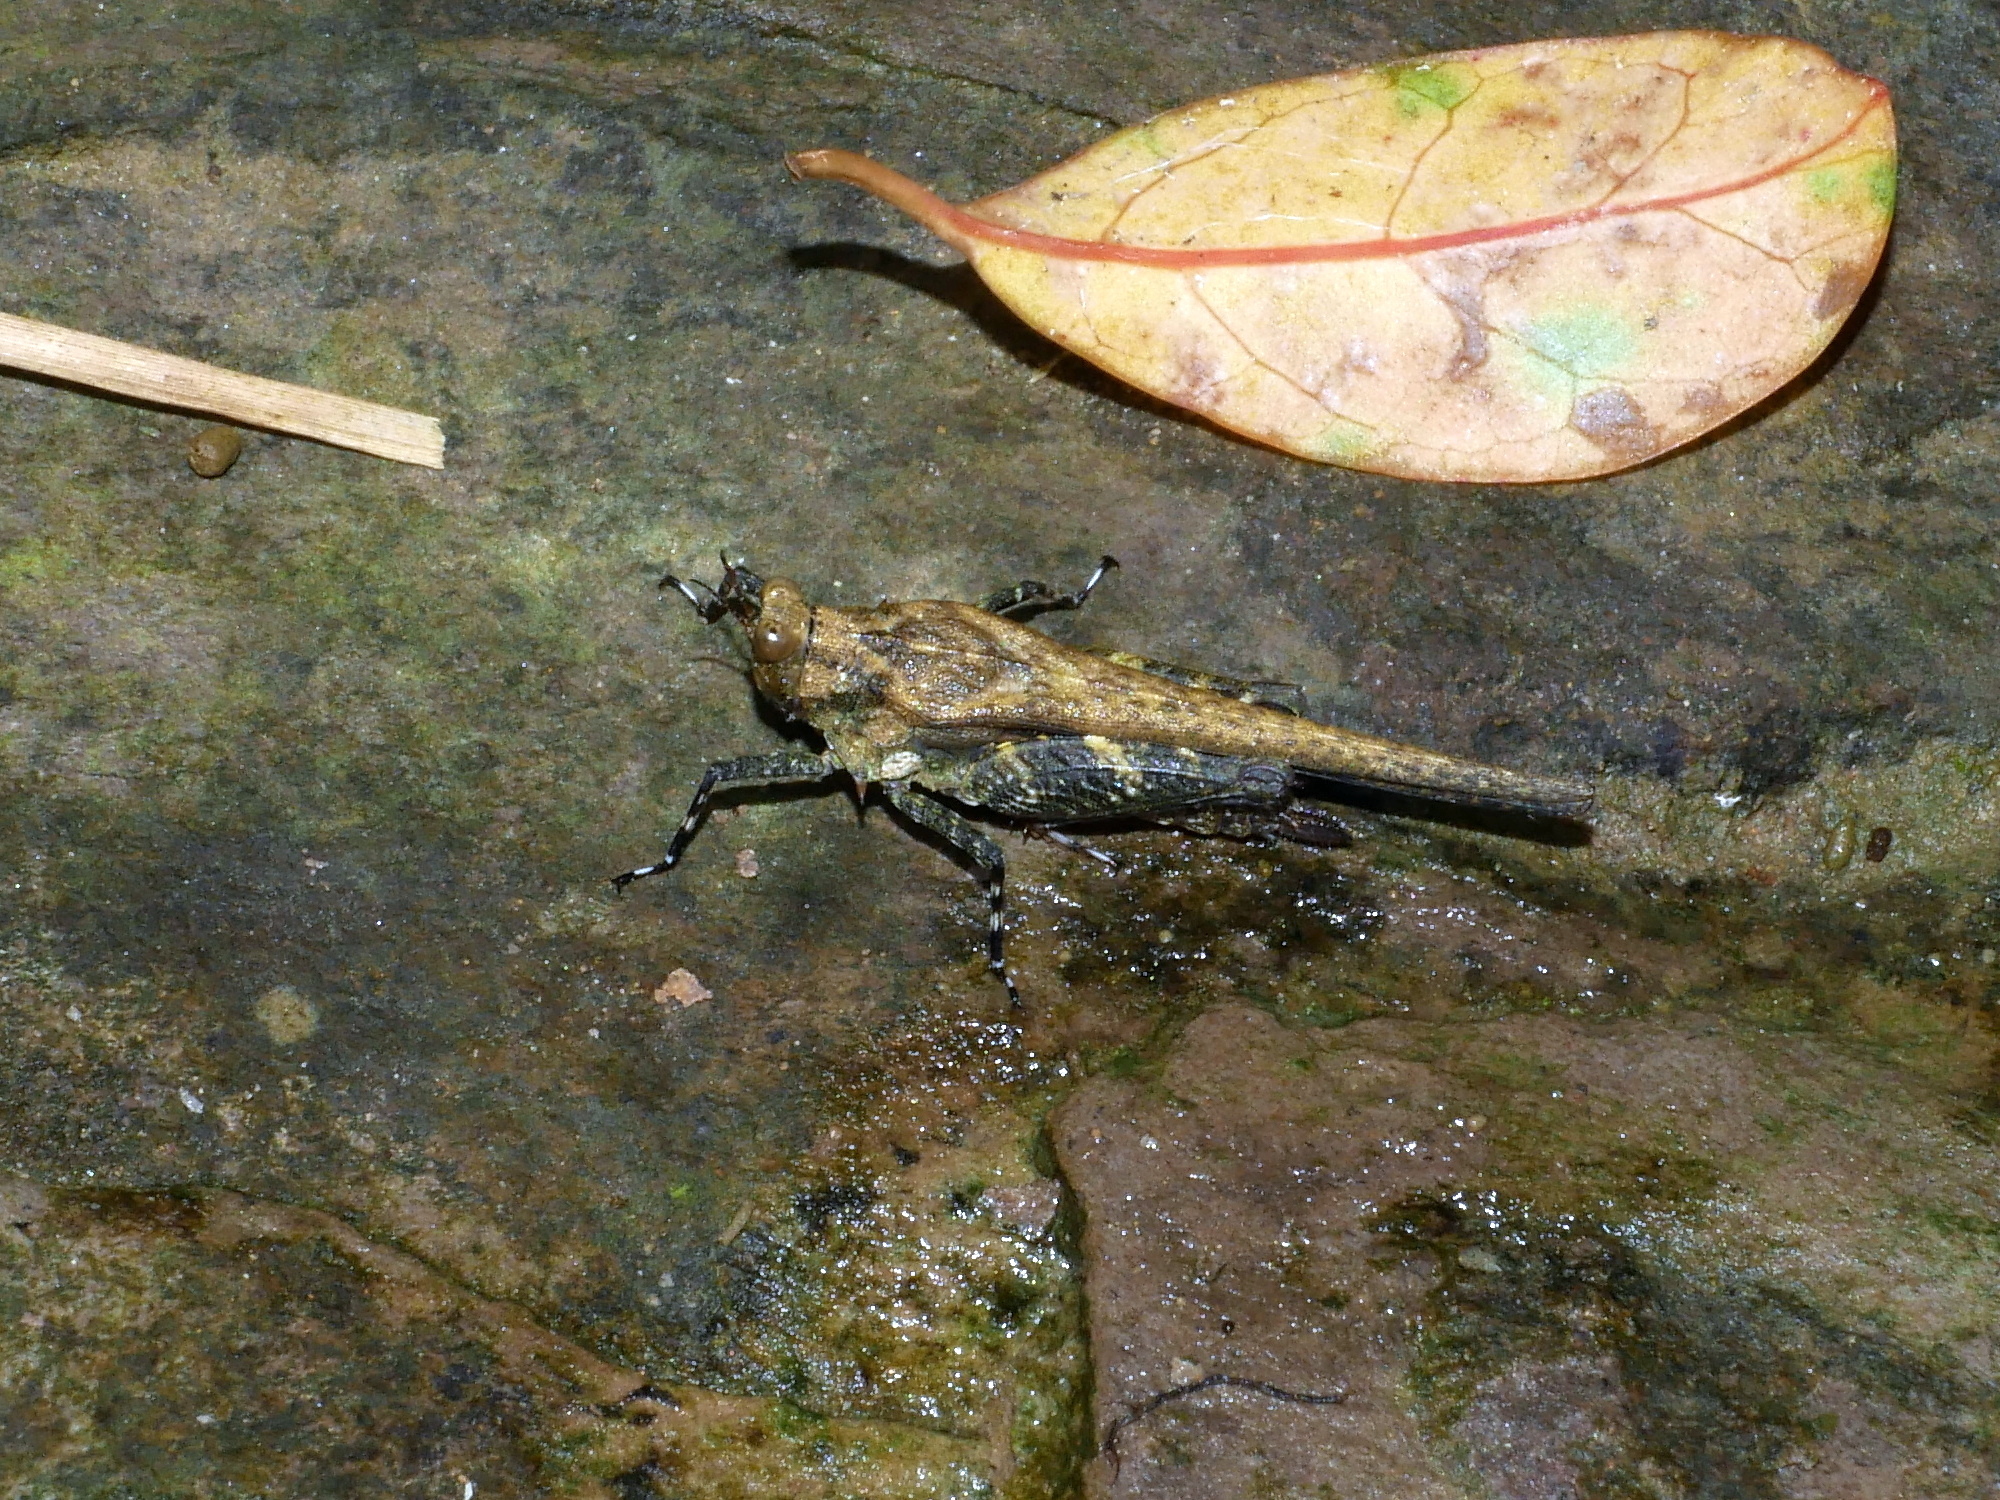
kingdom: Animalia
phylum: Arthropoda
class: Insecta
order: Orthoptera
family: Tetrigidae
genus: Criotettix
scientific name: Criotettix bispinosus
